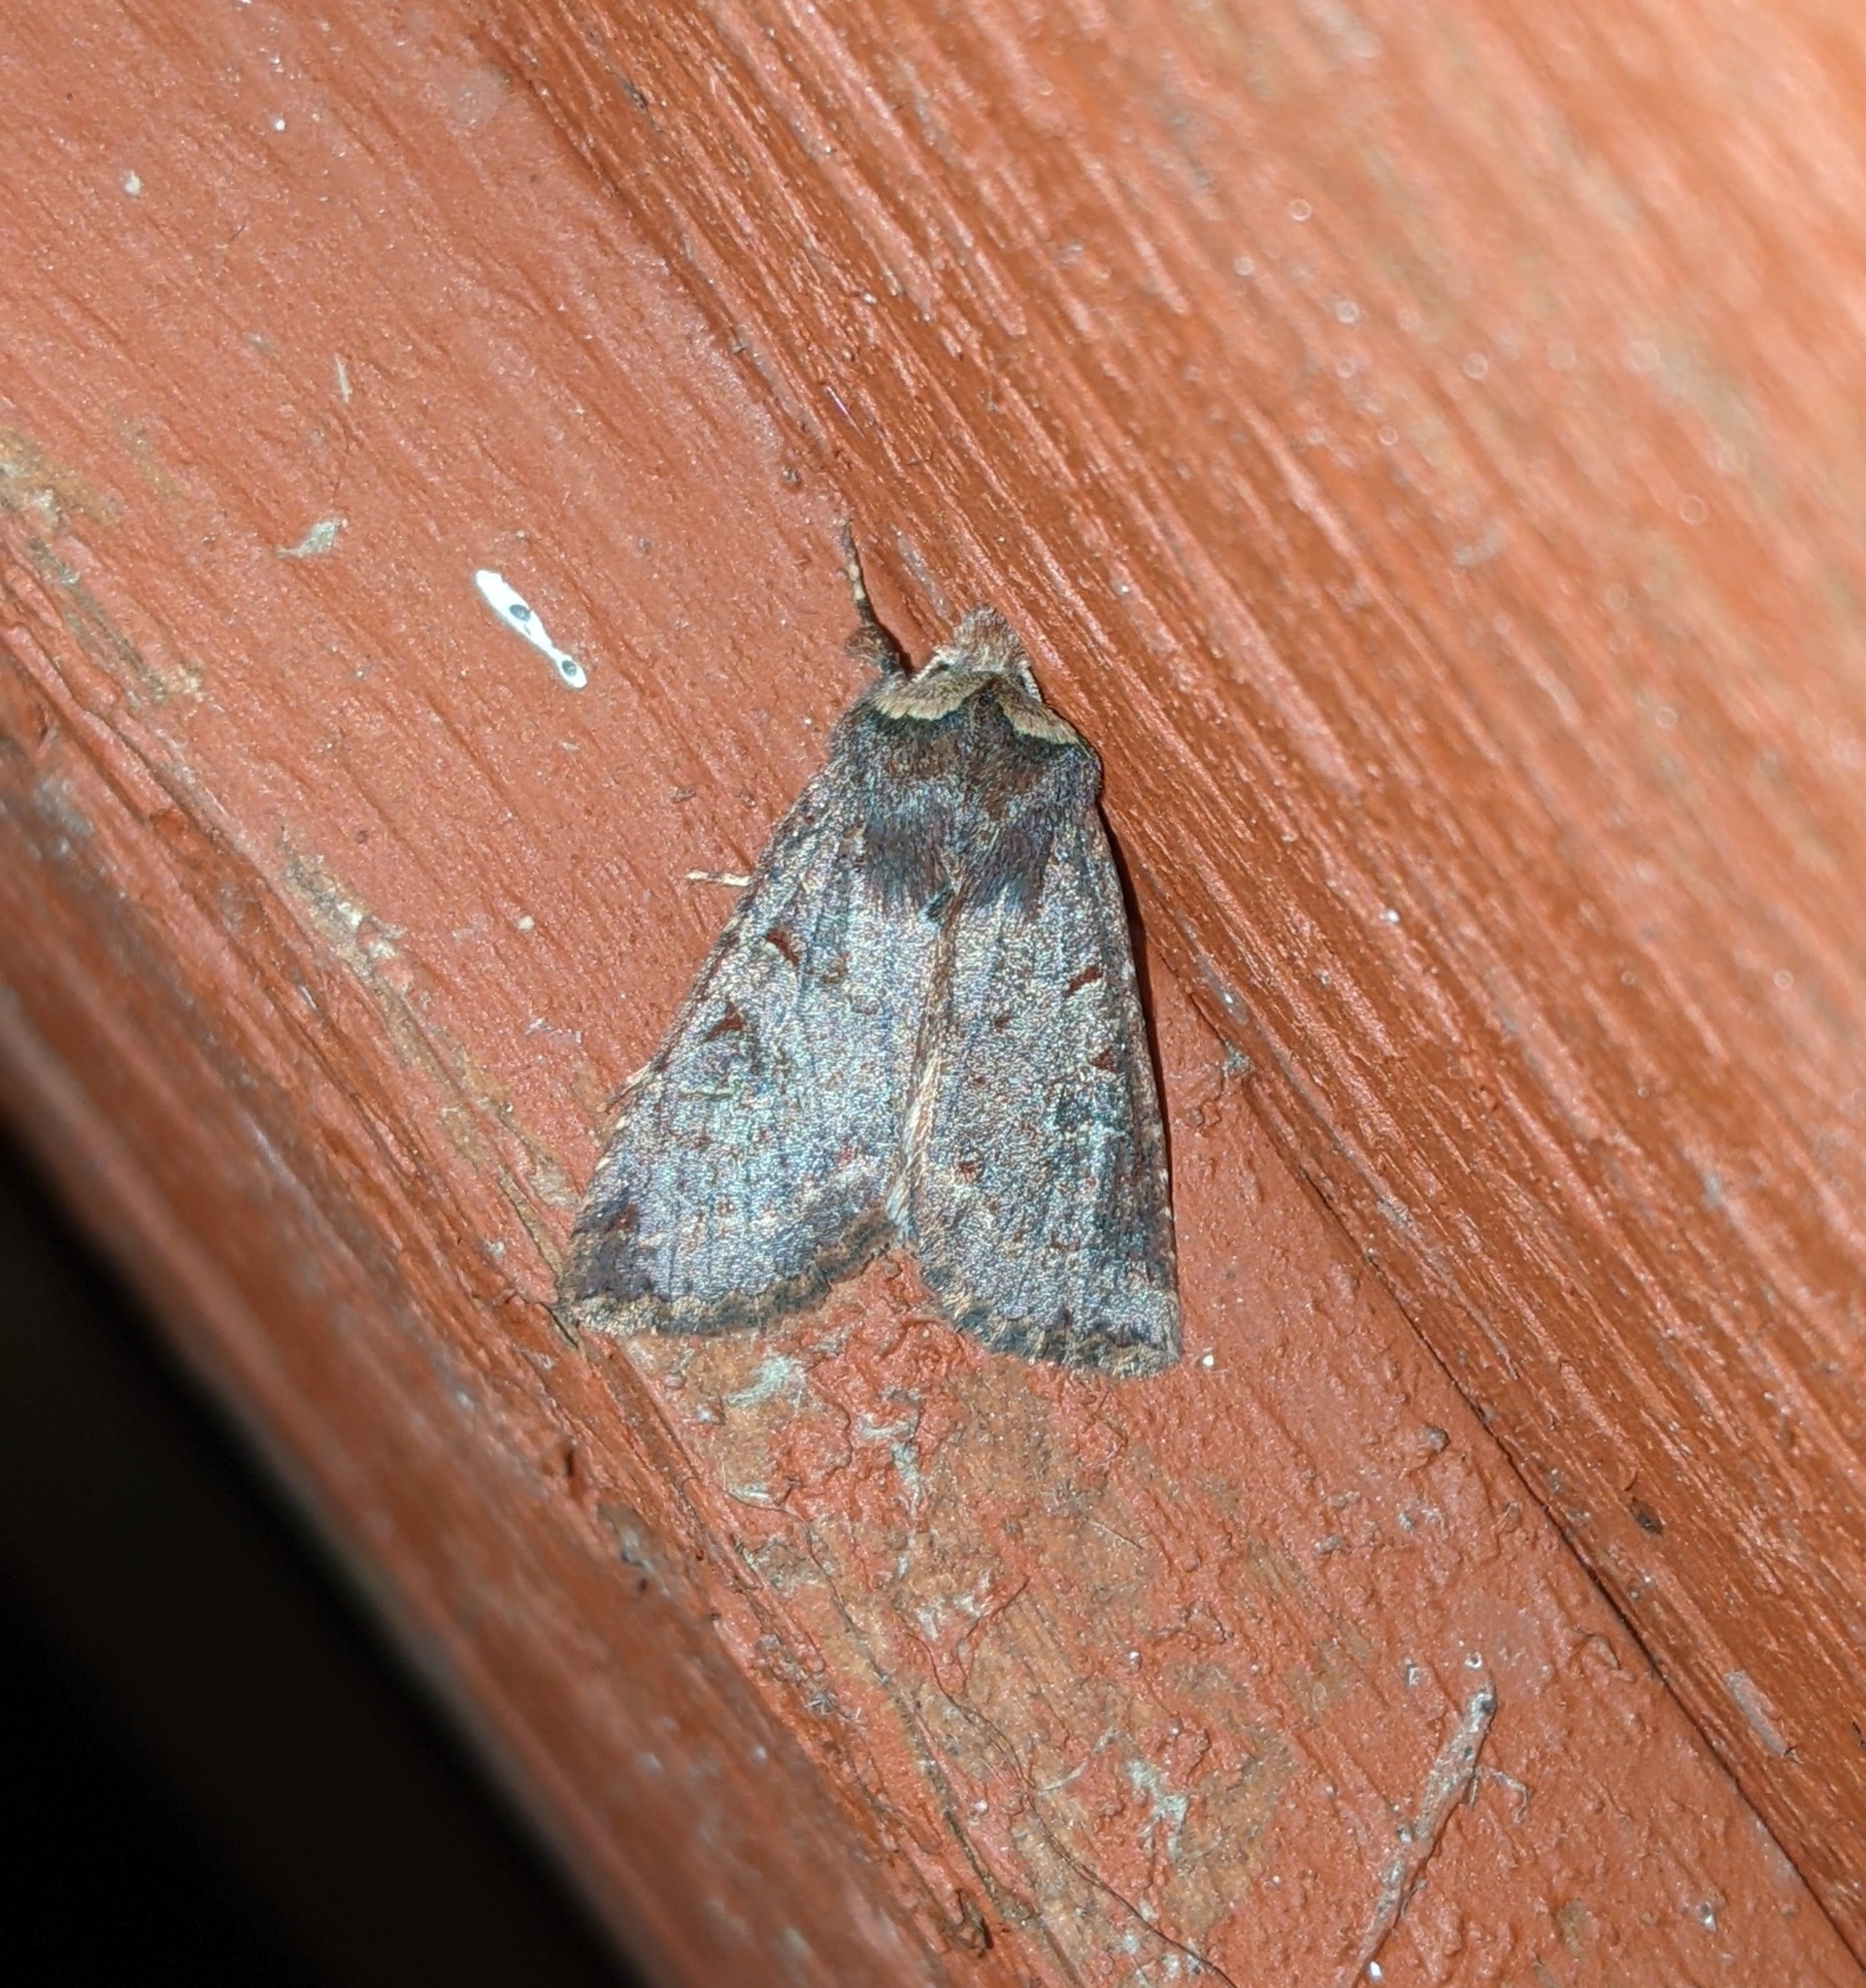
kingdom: Animalia
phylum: Arthropoda
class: Insecta
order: Lepidoptera
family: Noctuidae
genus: Orthosia
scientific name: Orthosia praeses
